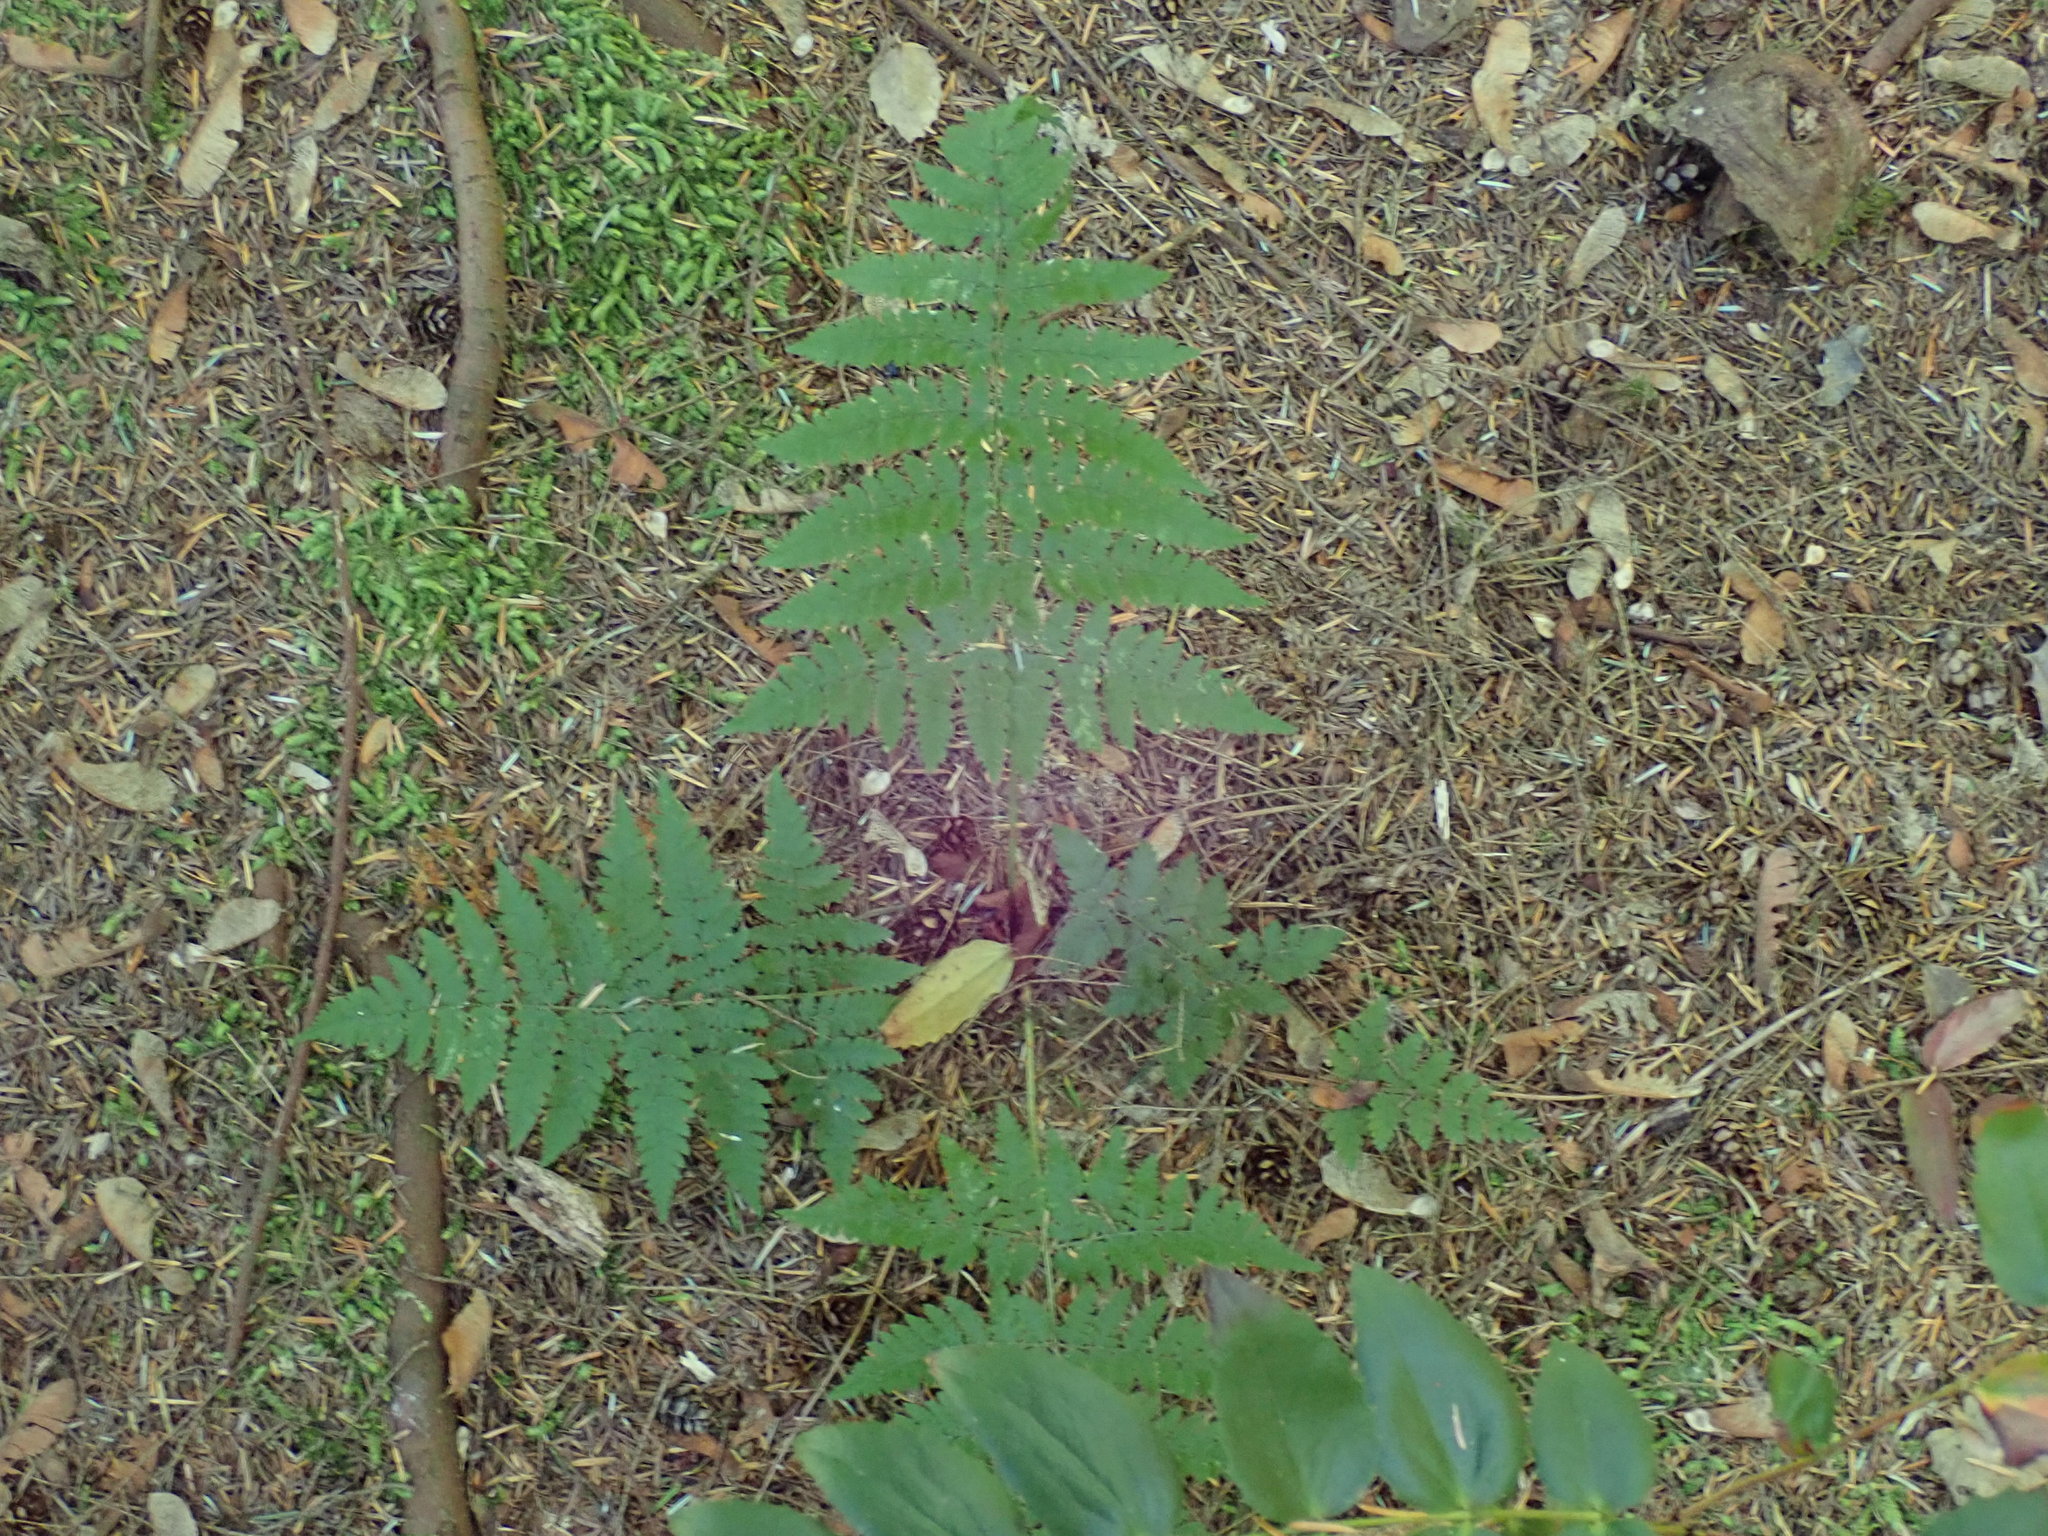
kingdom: Plantae
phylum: Tracheophyta
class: Polypodiopsida
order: Polypodiales
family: Dryopteridaceae
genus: Dryopteris
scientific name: Dryopteris expansa
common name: Northern buckler fern
